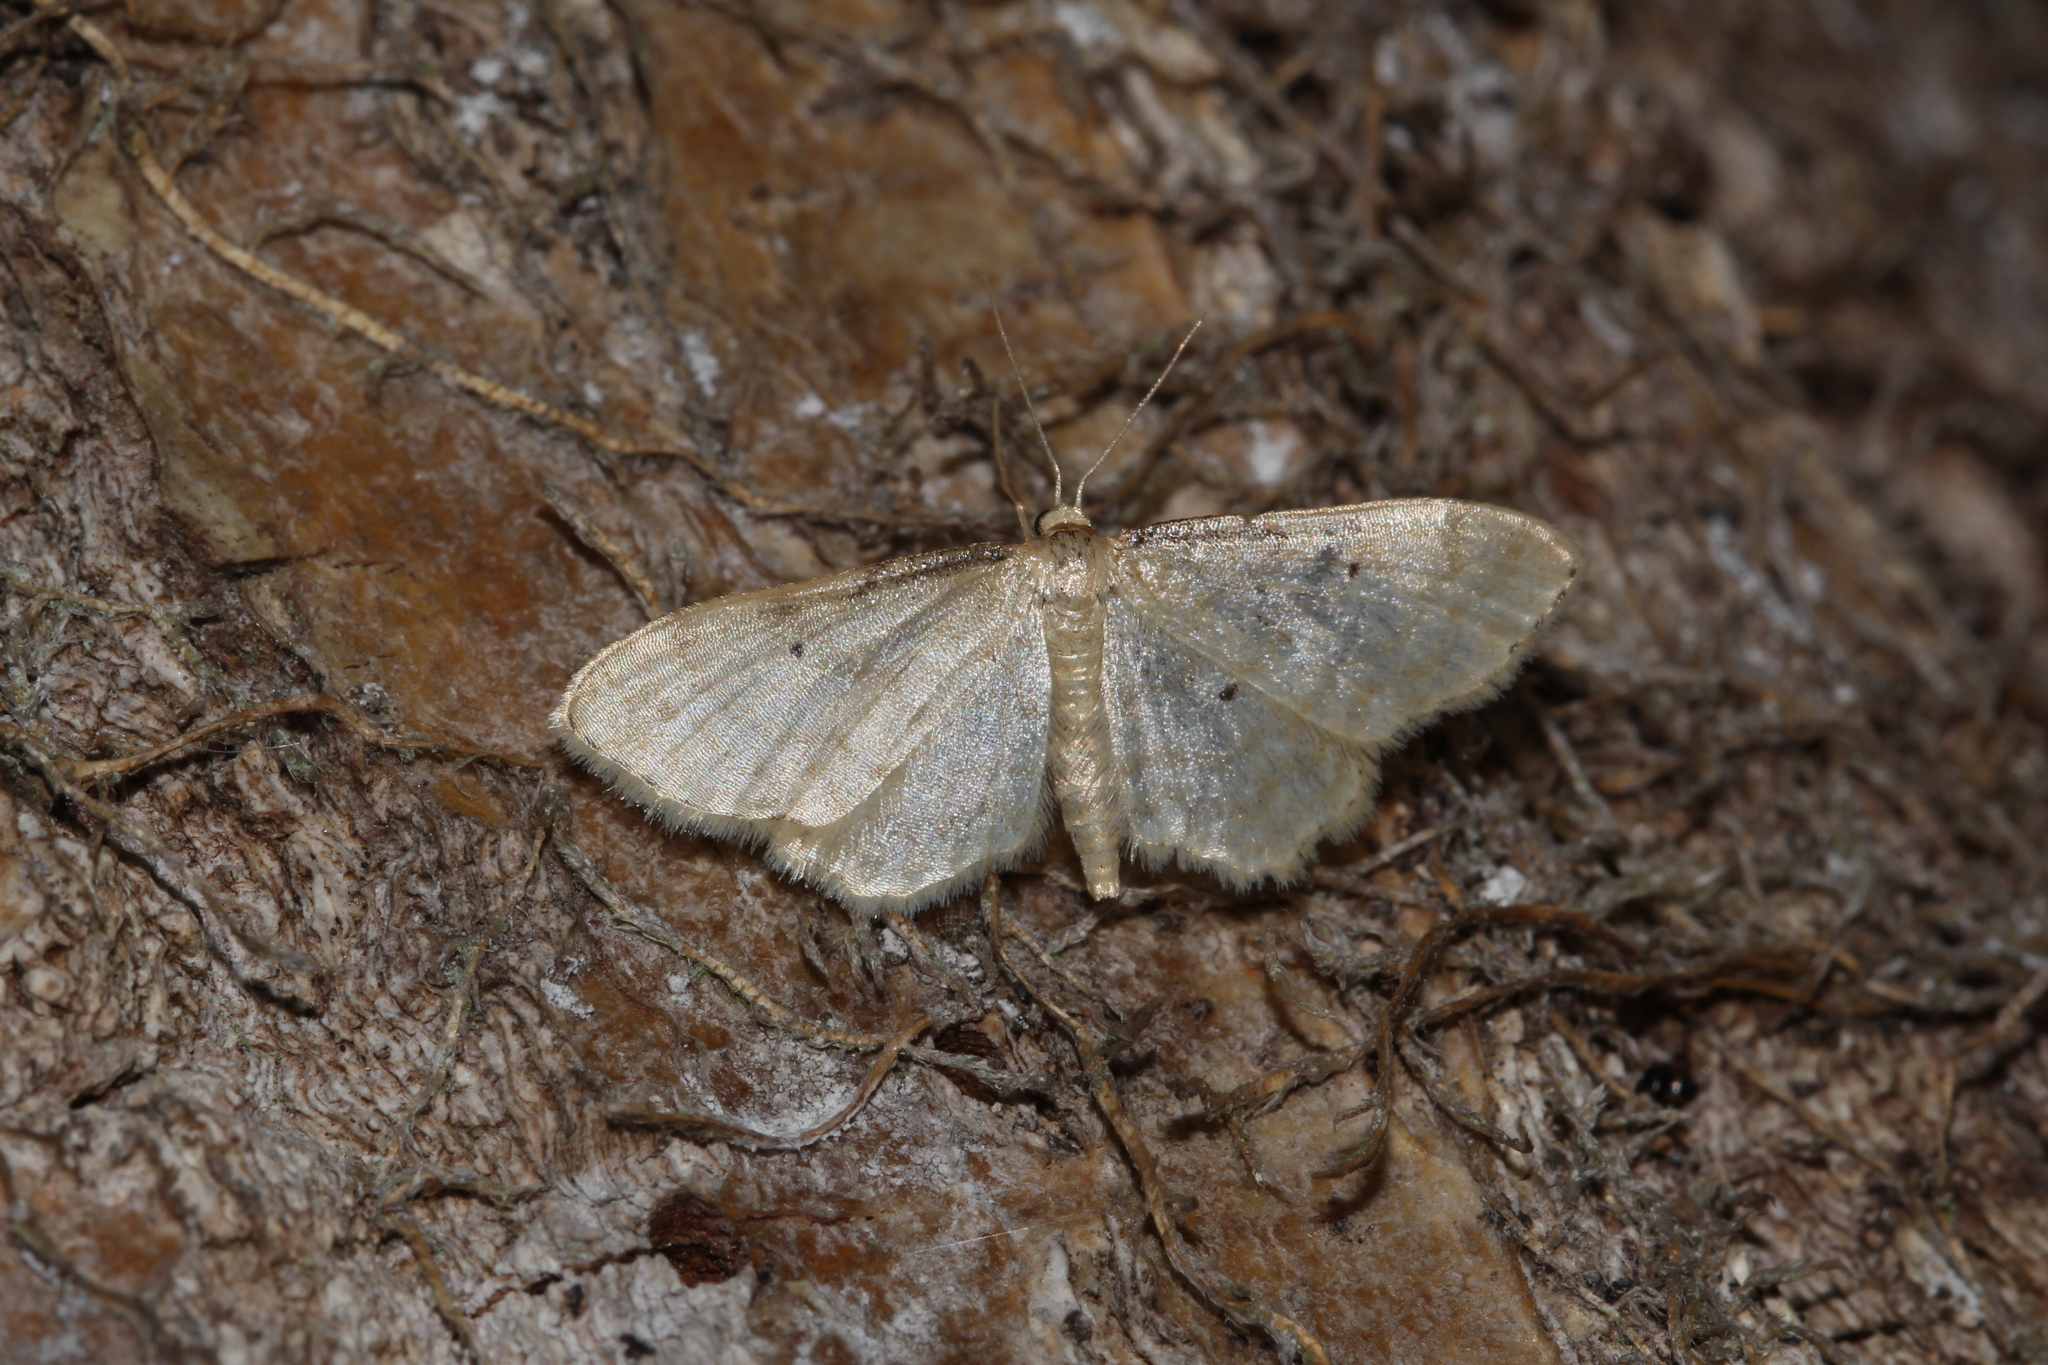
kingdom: Animalia
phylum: Arthropoda
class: Insecta
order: Lepidoptera
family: Geometridae
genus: Idaea
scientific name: Idaea fuscovenosa
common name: Dwarf cream wave
